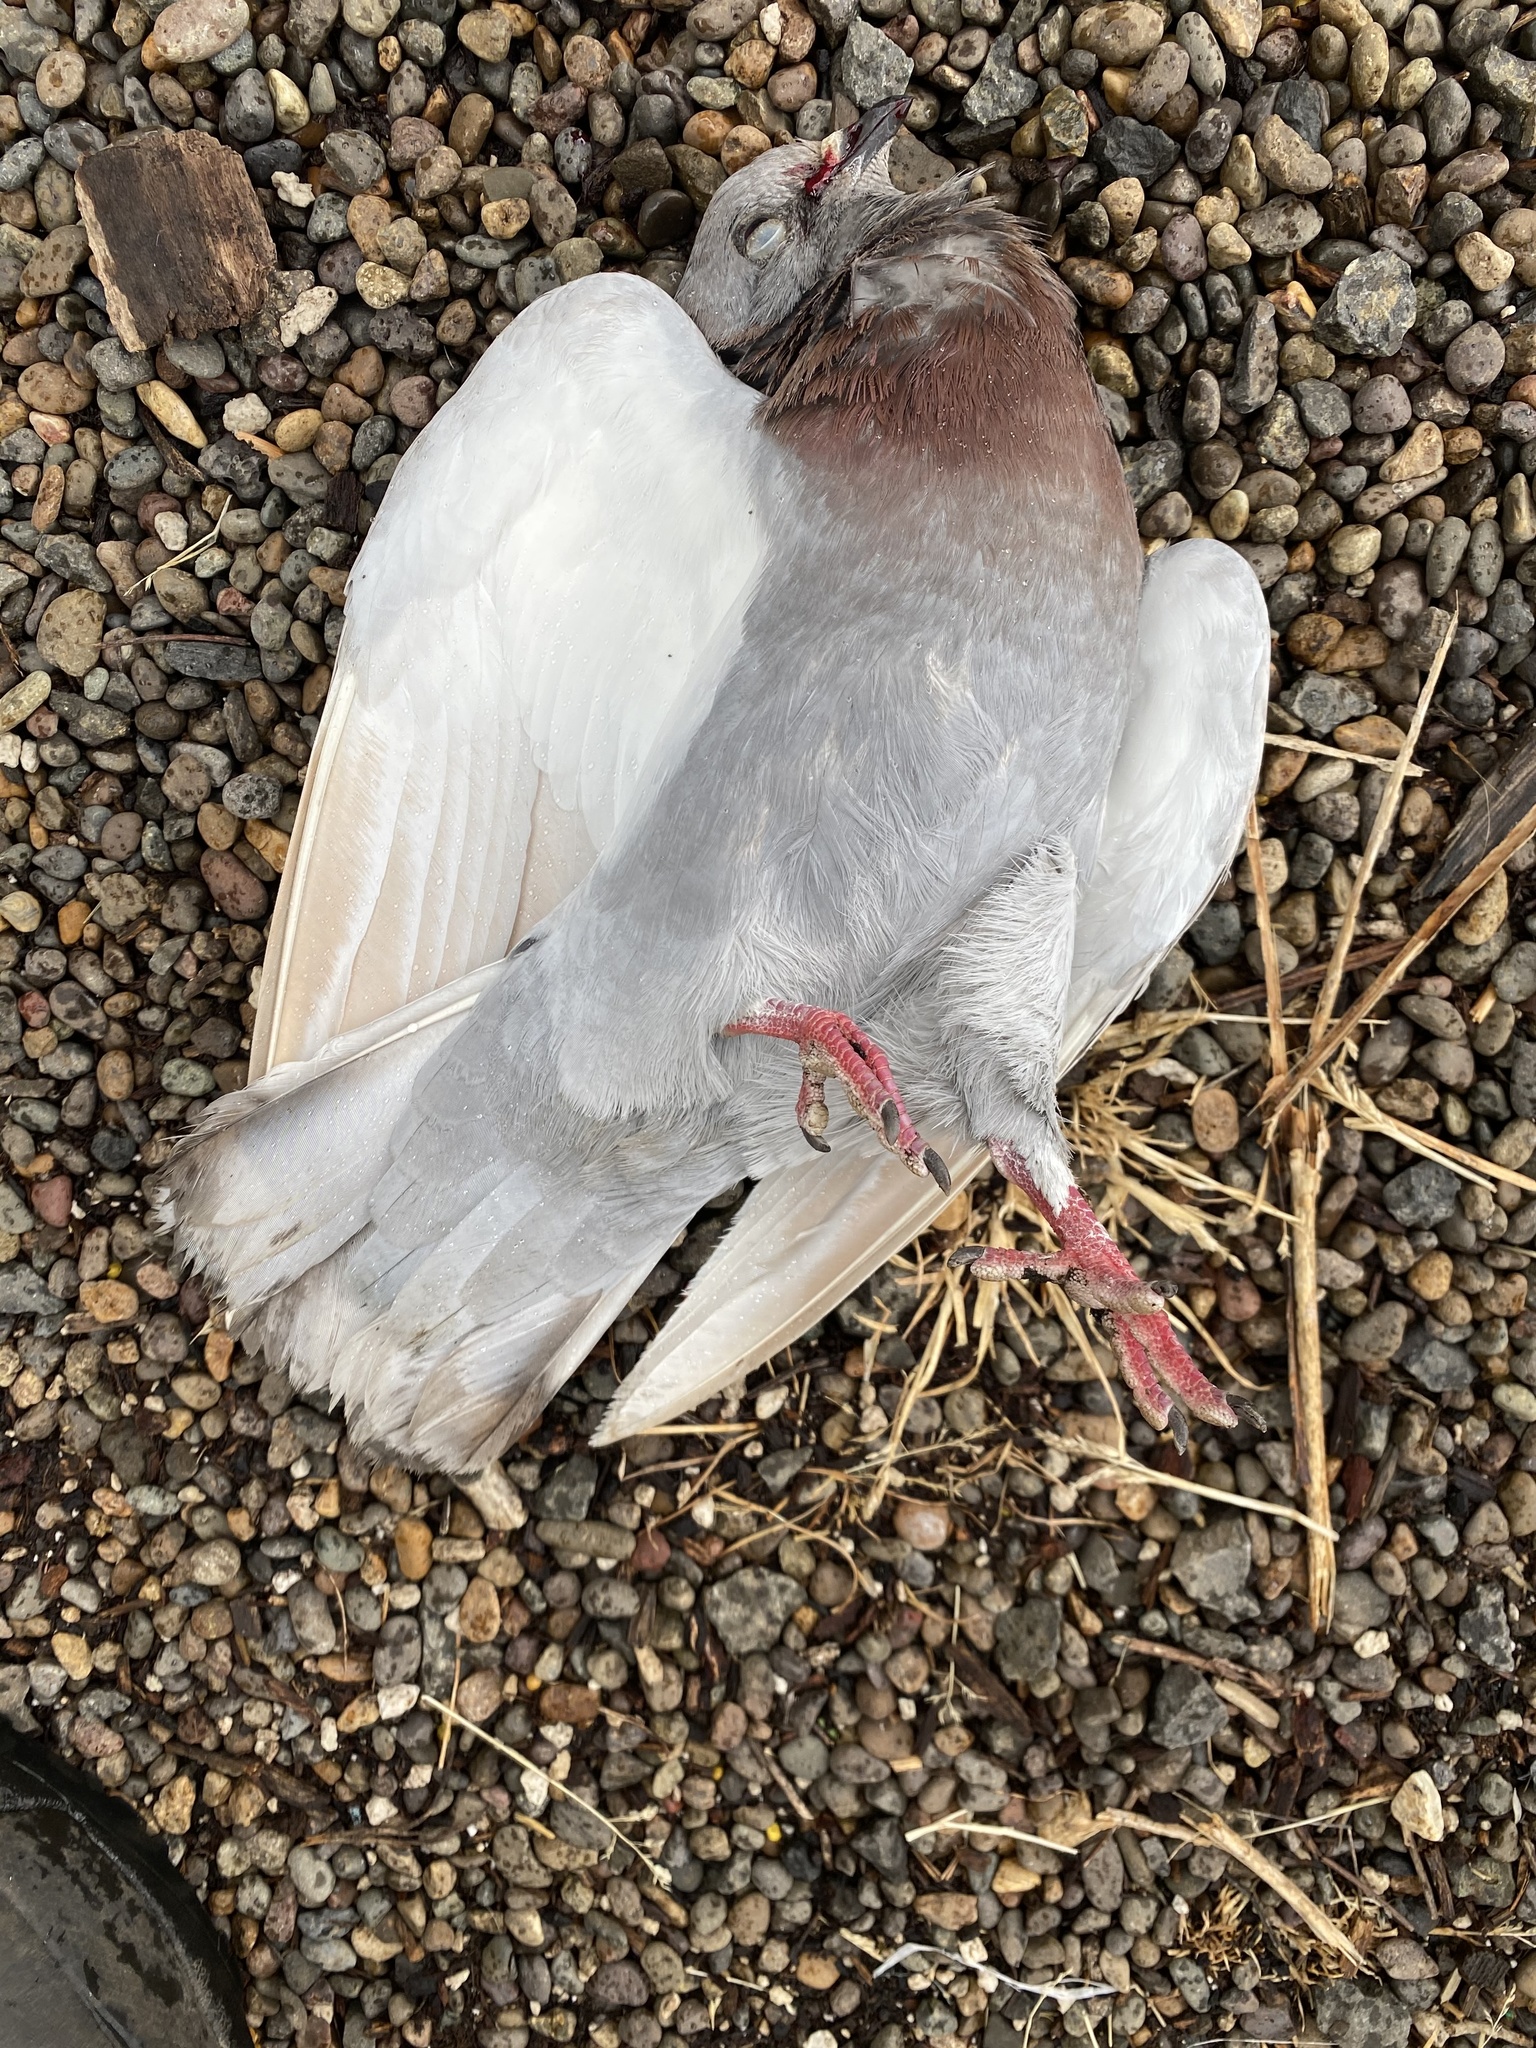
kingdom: Animalia
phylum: Chordata
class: Aves
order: Columbiformes
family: Columbidae
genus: Columba
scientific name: Columba livia
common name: Rock pigeon
